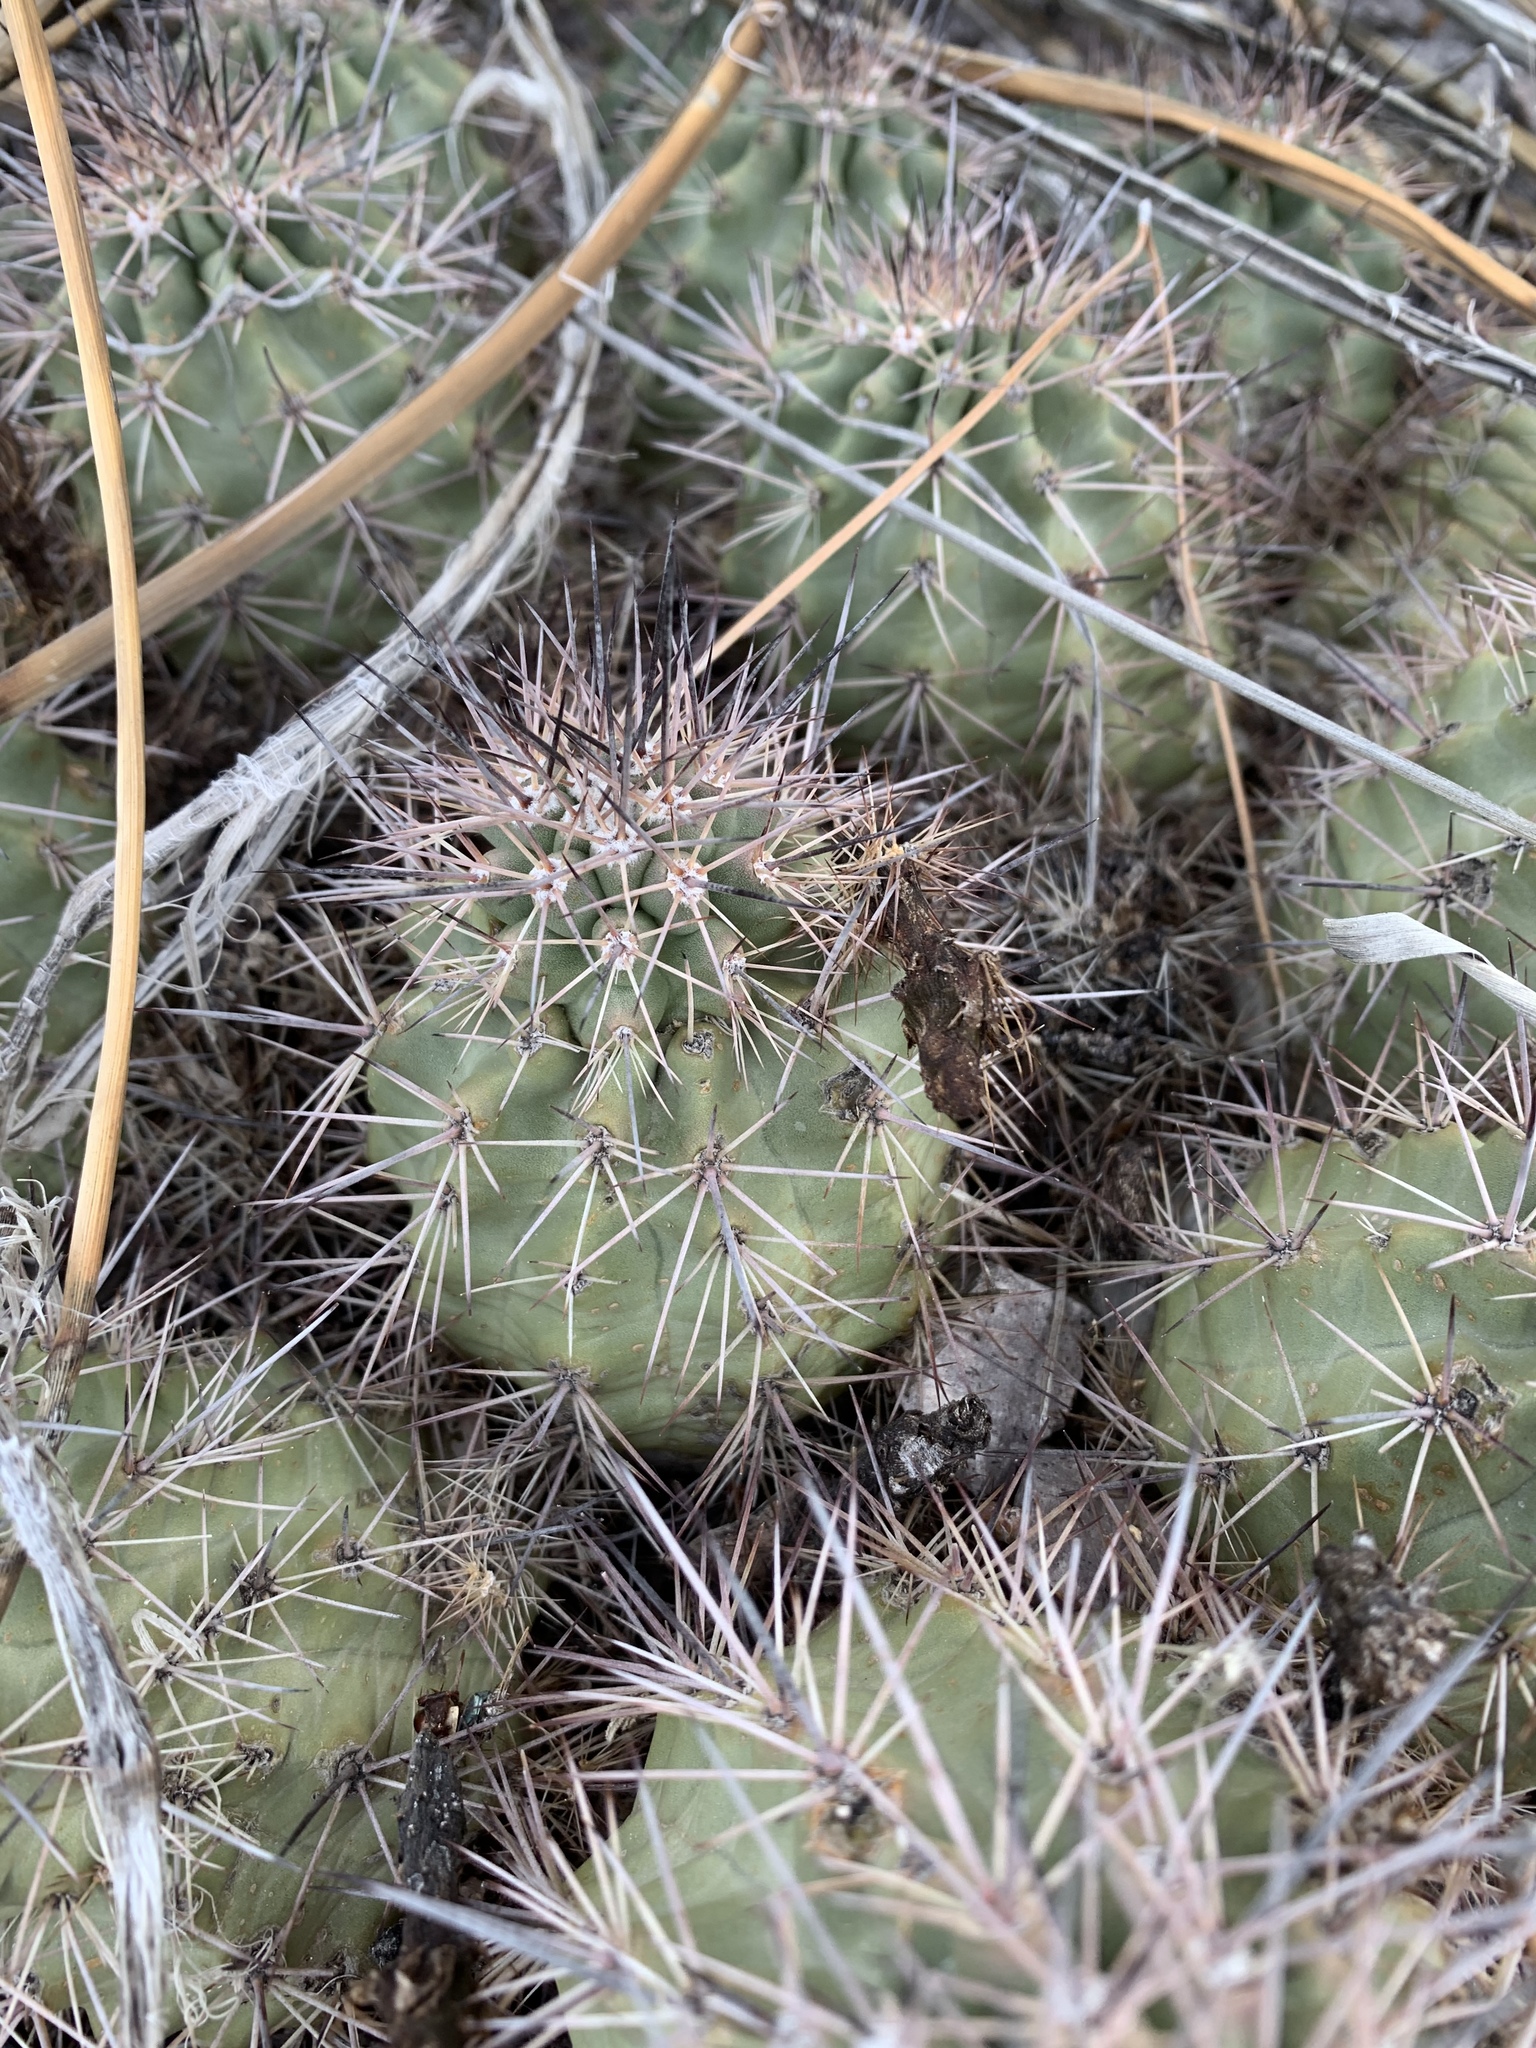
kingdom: Plantae
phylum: Tracheophyta
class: Magnoliopsida
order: Caryophyllales
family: Cactaceae
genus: Echinocereus
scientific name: Echinocereus coccineus
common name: Scarlet hedgehog cactus
